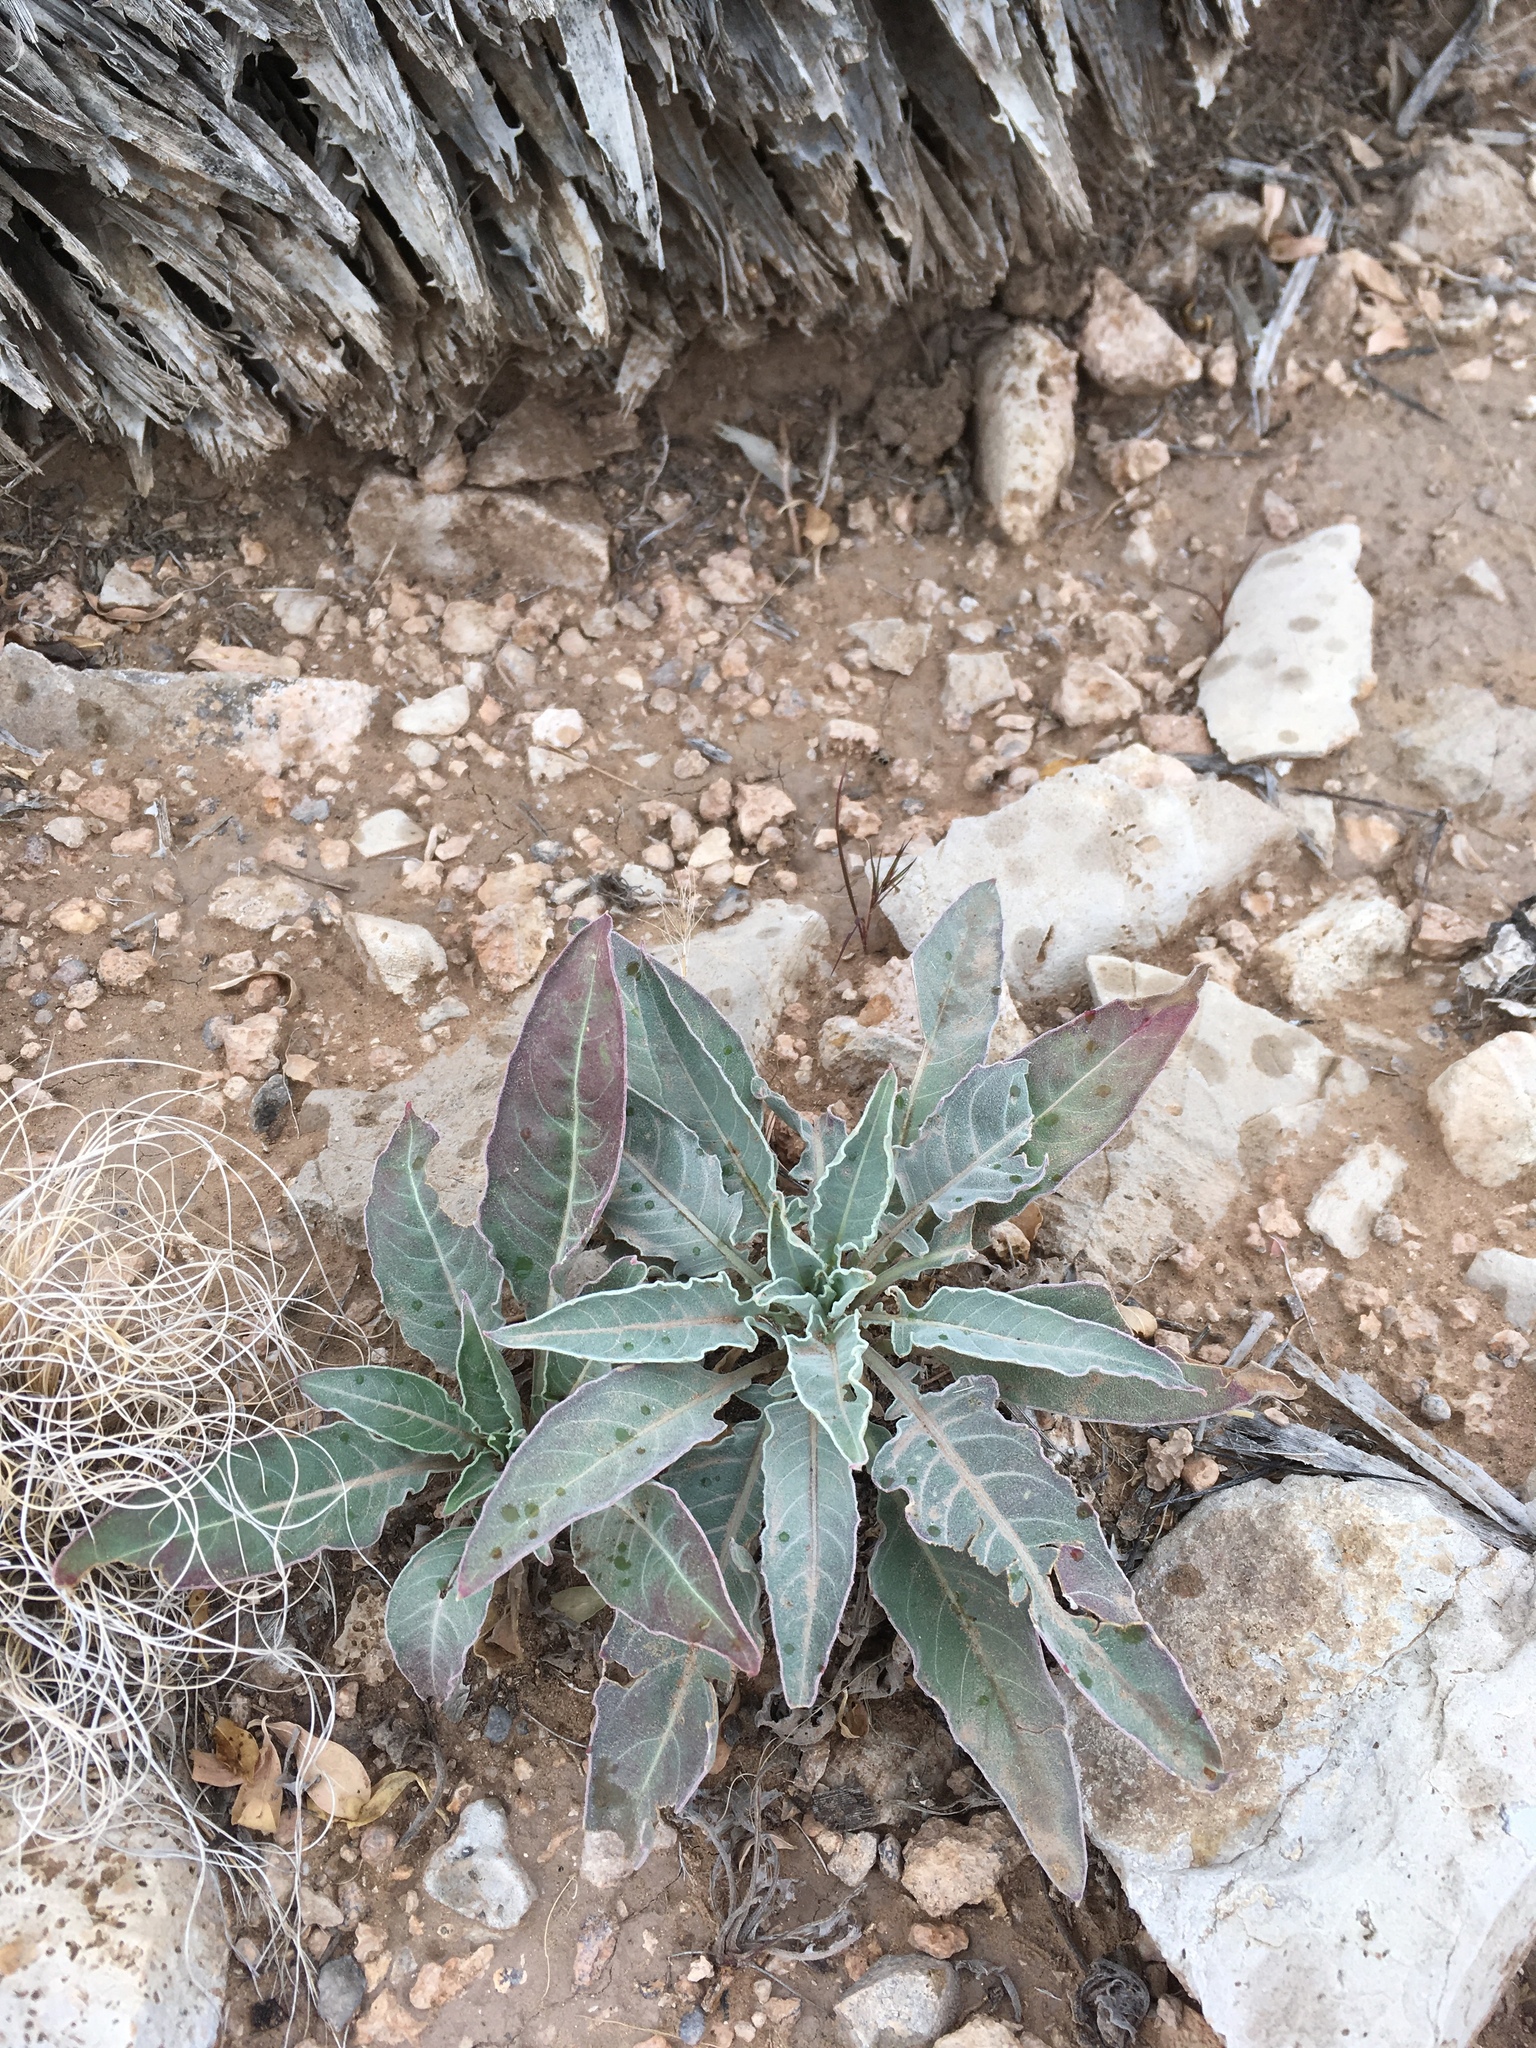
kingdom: Plantae
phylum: Tracheophyta
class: Magnoliopsida
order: Myrtales
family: Onagraceae
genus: Oenothera
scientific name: Oenothera brachycarpa
